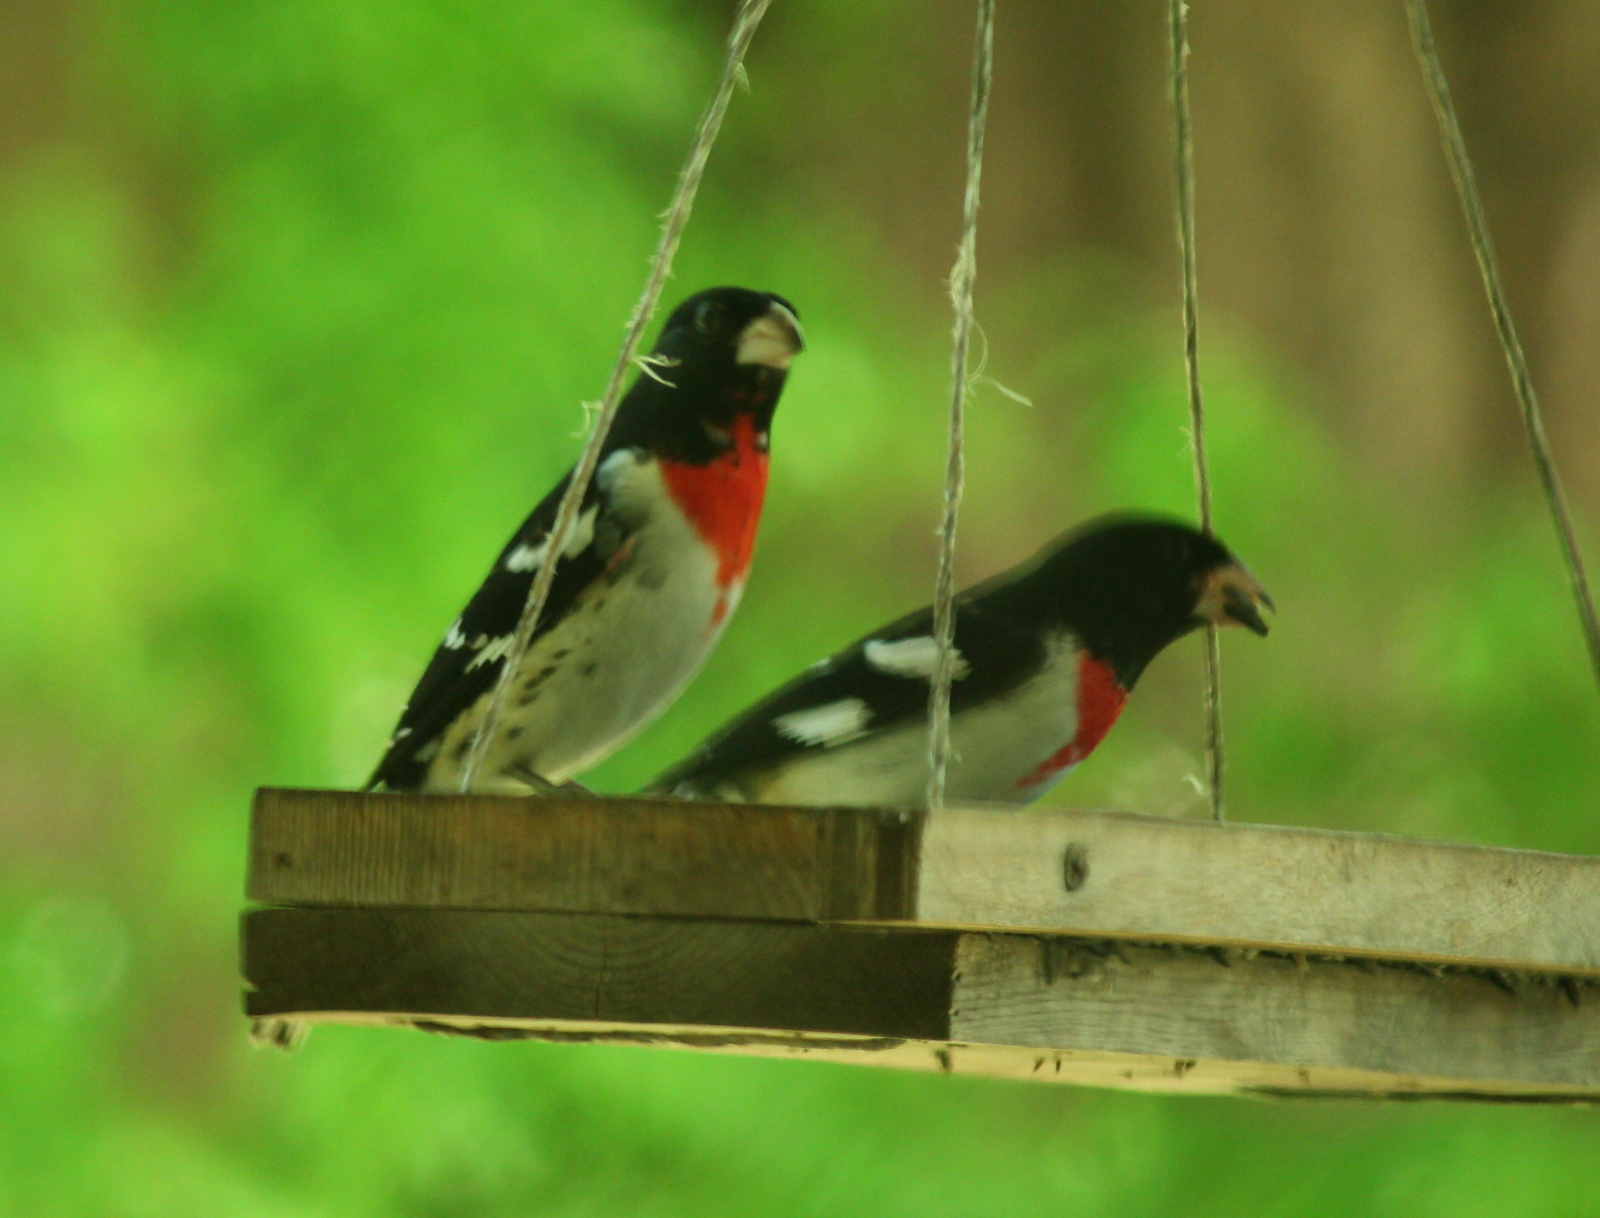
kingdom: Animalia
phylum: Chordata
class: Aves
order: Passeriformes
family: Cardinalidae
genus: Pheucticus
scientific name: Pheucticus ludovicianus
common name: Rose-breasted grosbeak
